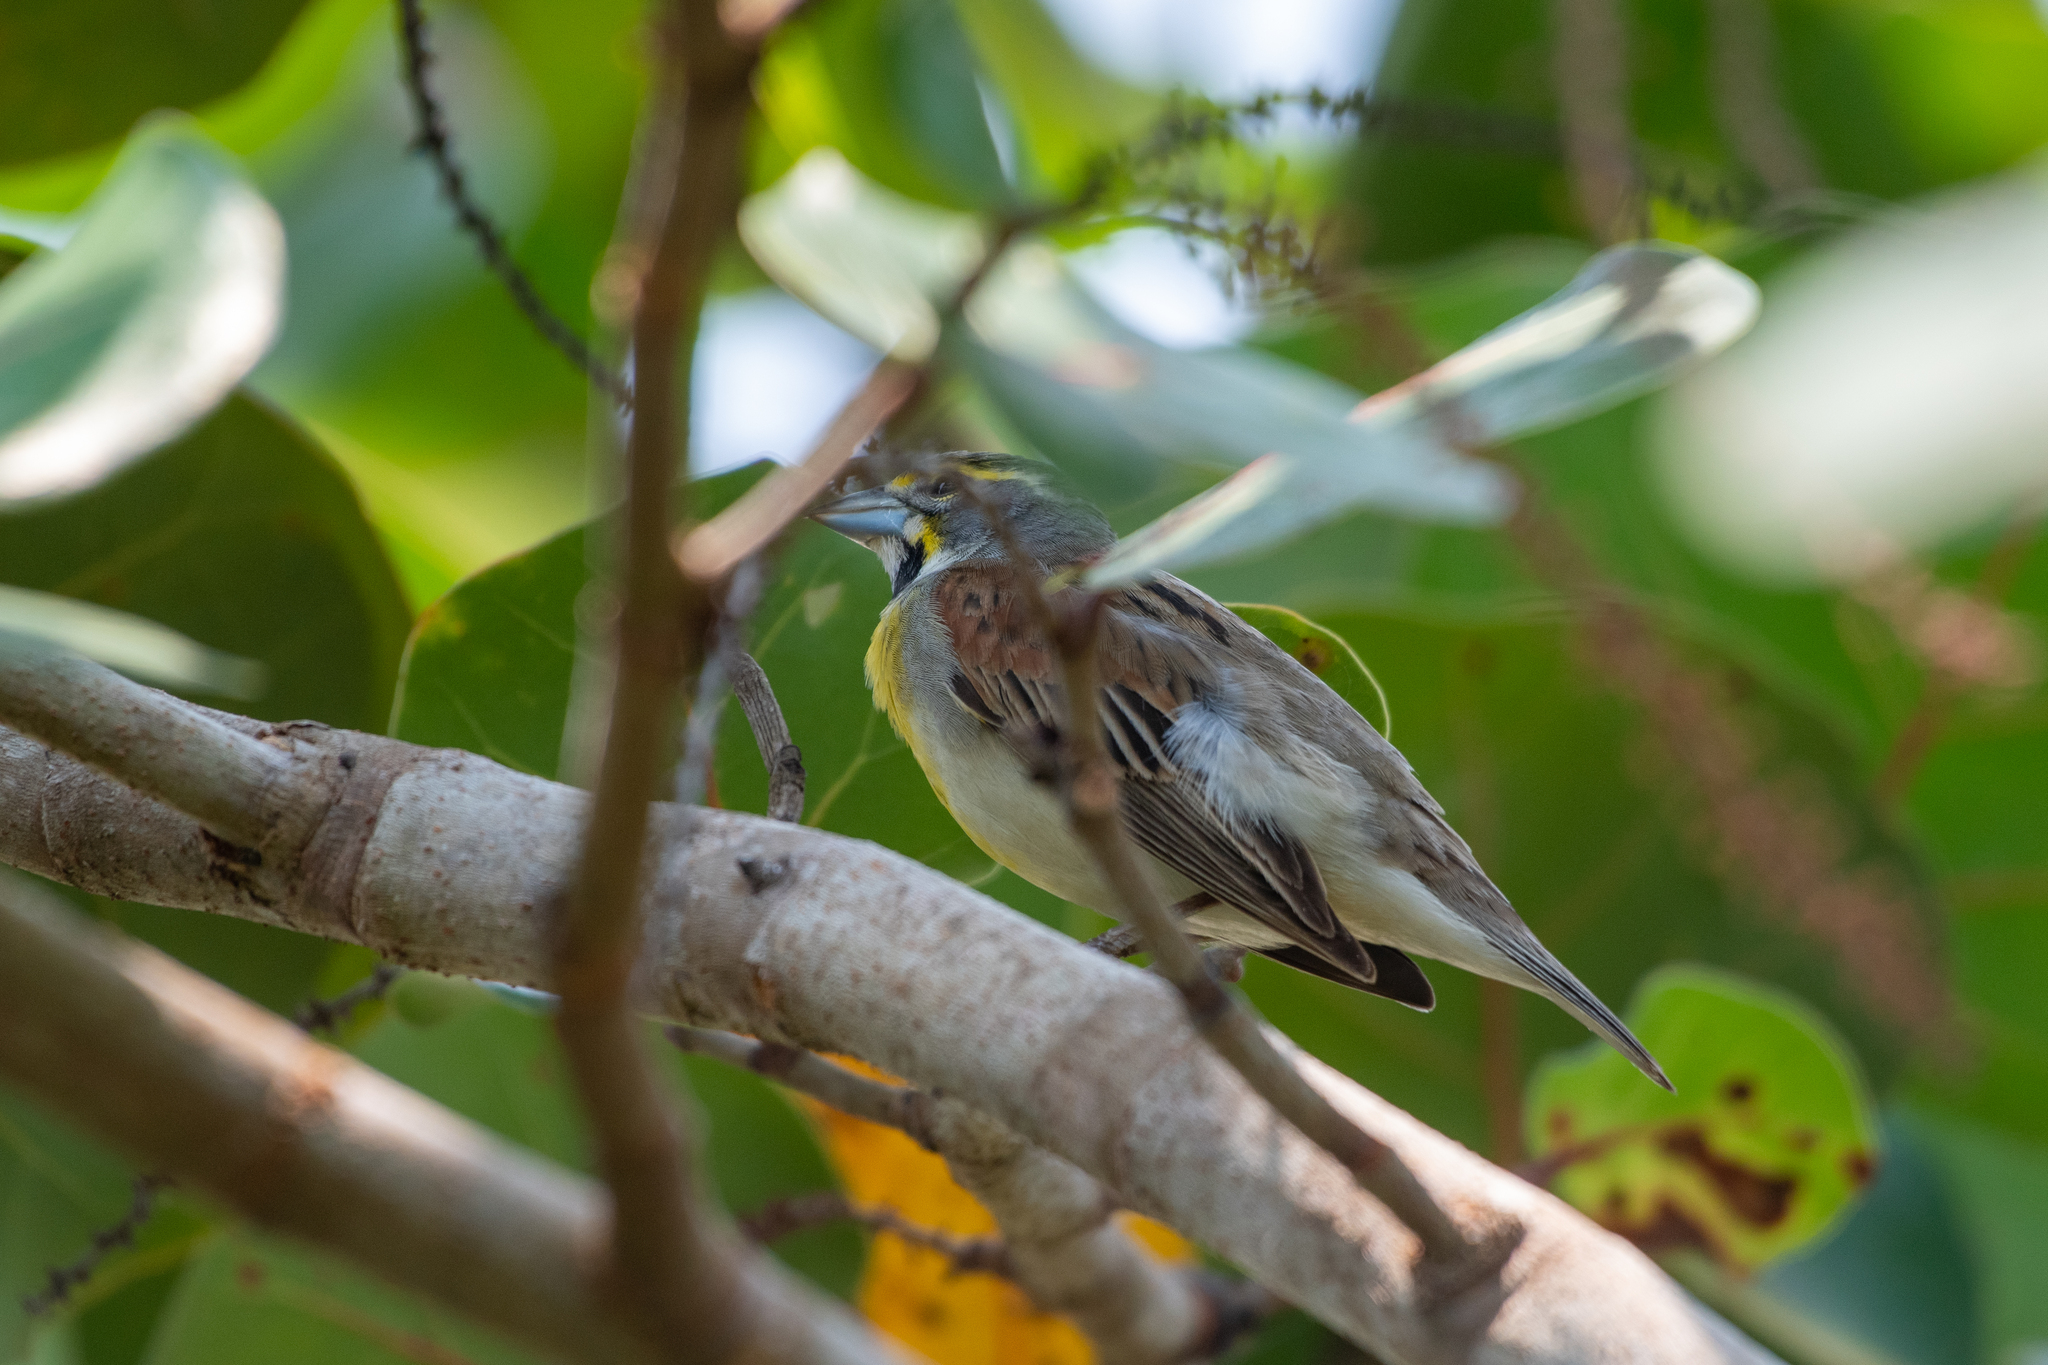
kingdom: Animalia
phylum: Chordata
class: Aves
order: Passeriformes
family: Cardinalidae
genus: Spiza
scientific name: Spiza americana
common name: Dickcissel
